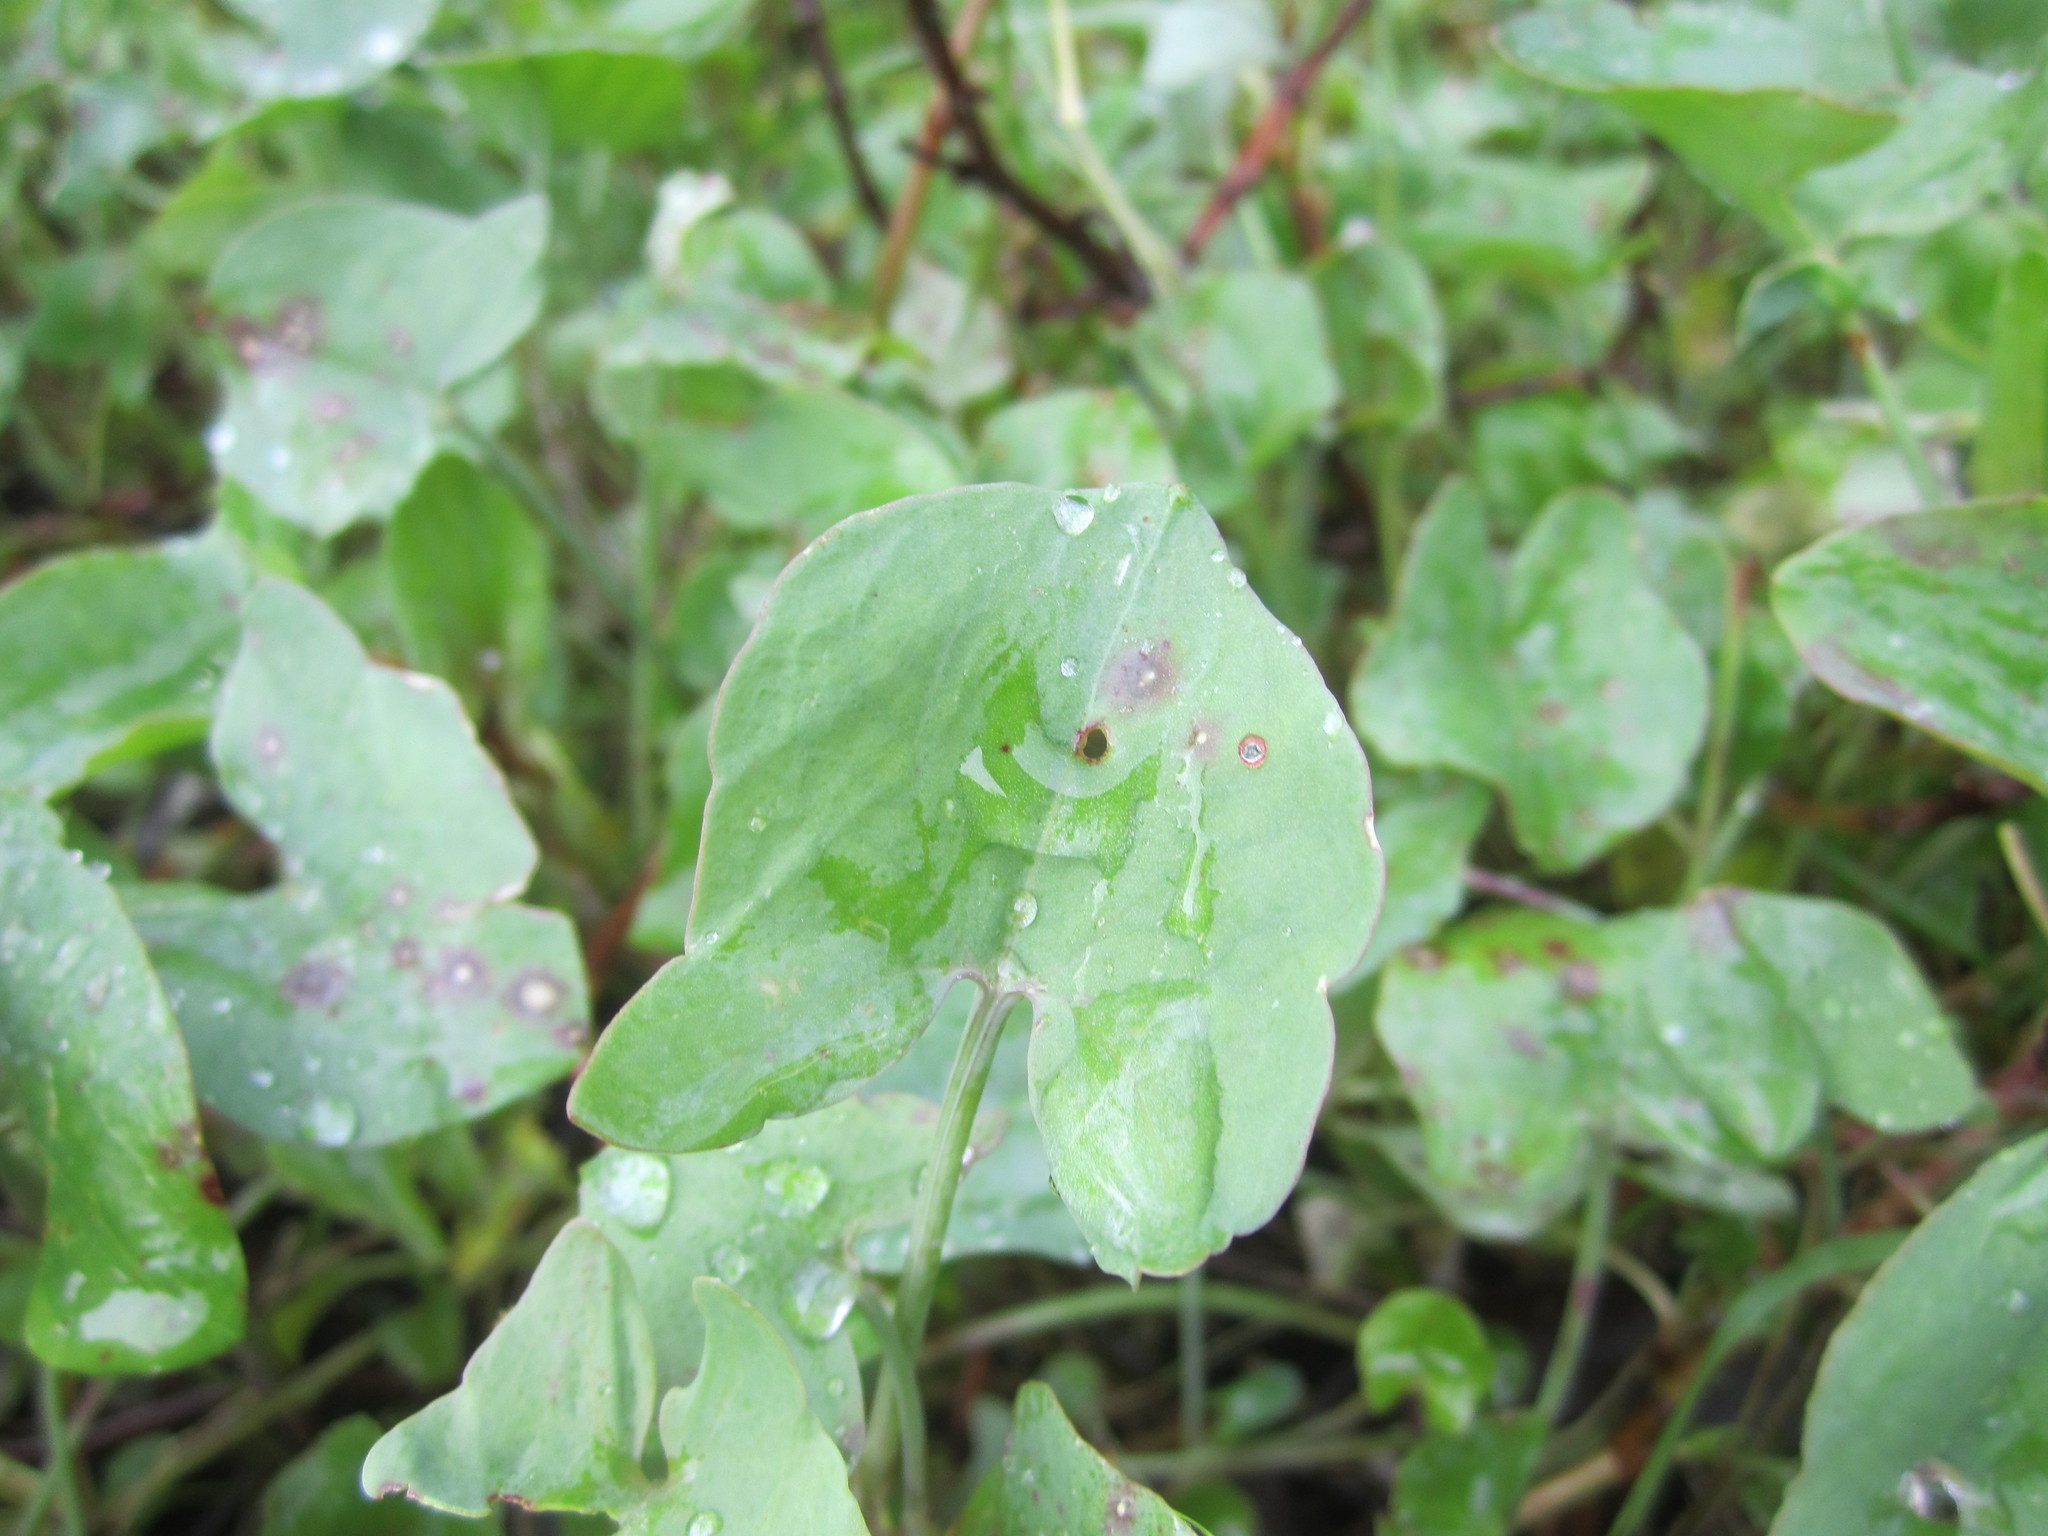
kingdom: Plantae
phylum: Tracheophyta
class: Magnoliopsida
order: Caryophyllales
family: Polygonaceae
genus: Rumex
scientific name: Rumex induratus
